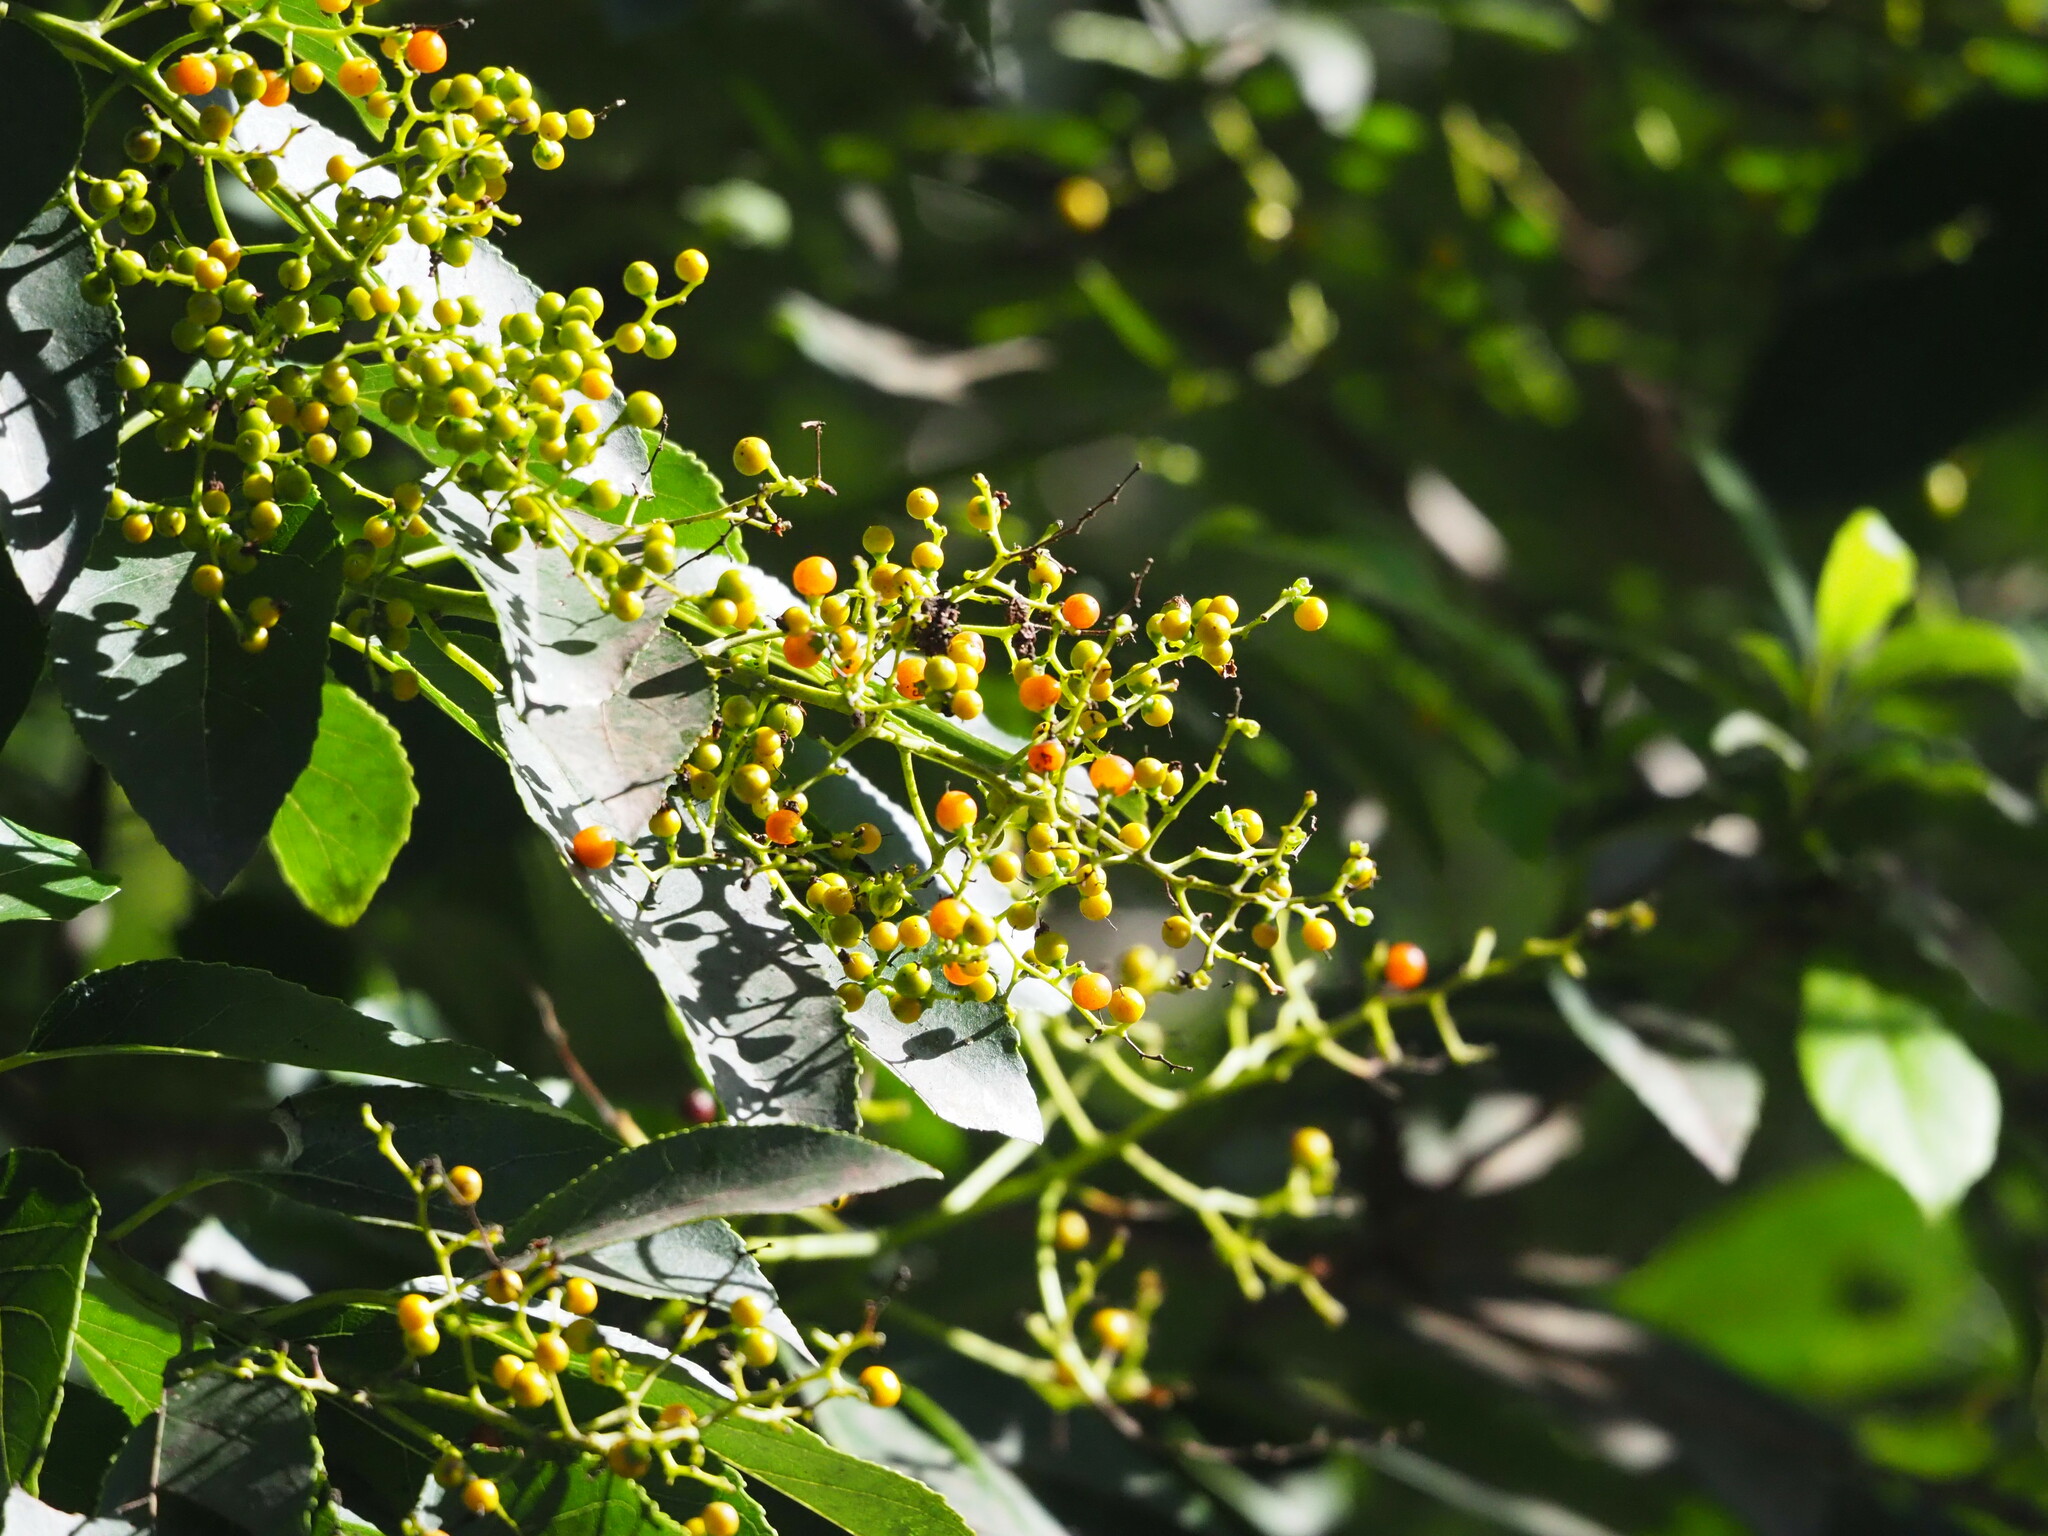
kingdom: Plantae
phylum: Tracheophyta
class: Magnoliopsida
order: Boraginales
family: Ehretiaceae
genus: Ehretia
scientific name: Ehretia acuminata
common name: Kodo wood
